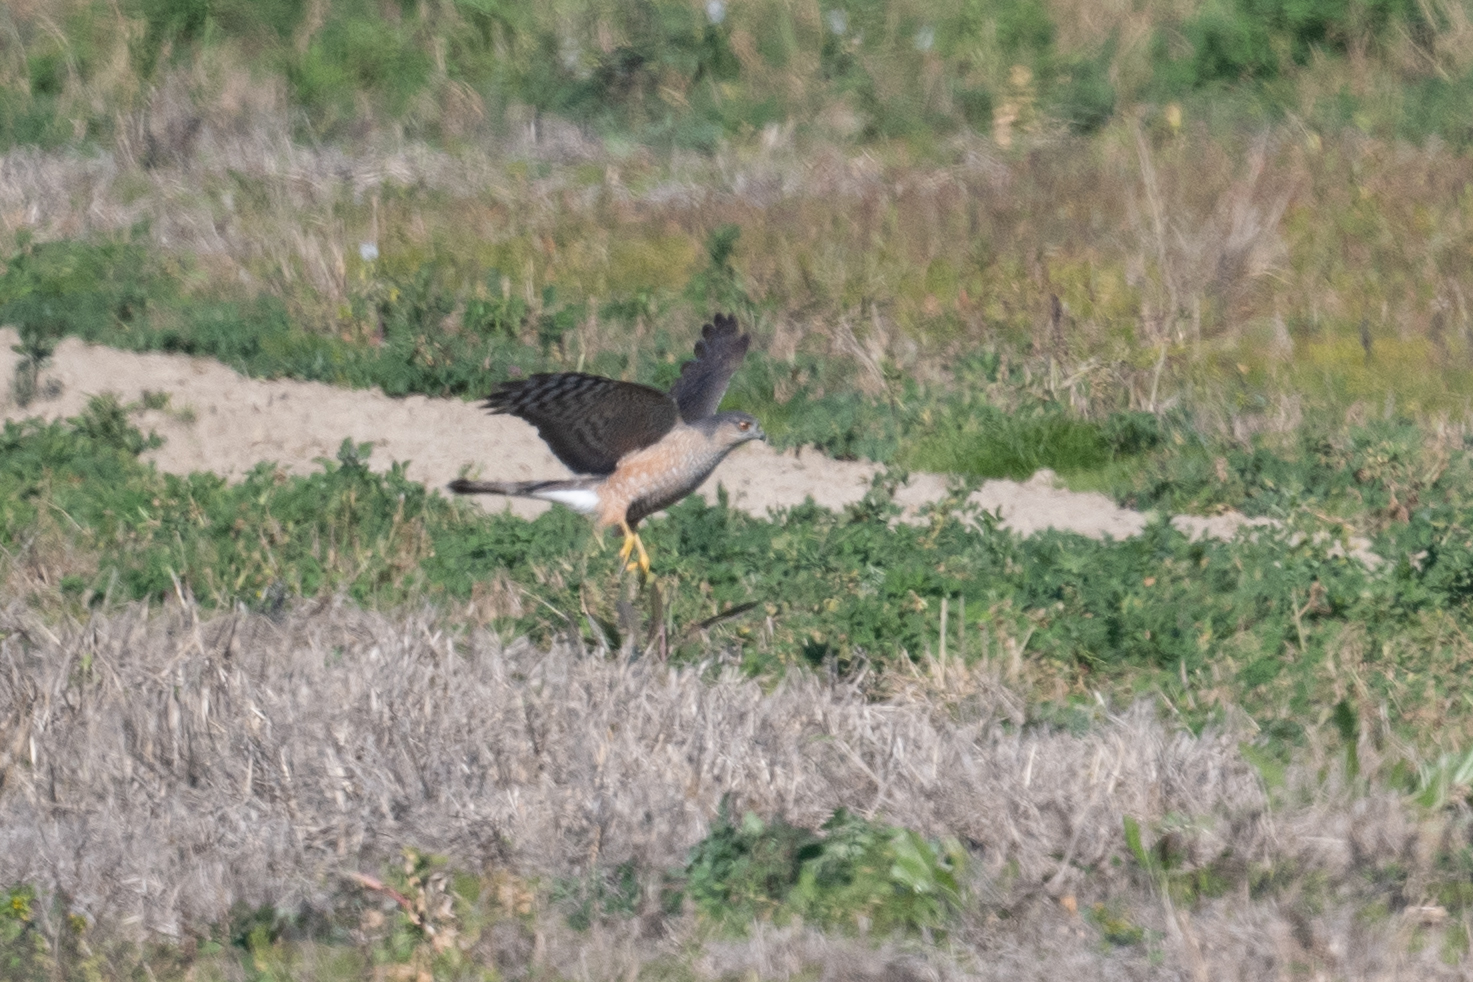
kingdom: Animalia
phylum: Chordata
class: Aves
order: Accipitriformes
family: Accipitridae
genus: Accipiter
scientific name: Accipiter cooperii
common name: Cooper's hawk
